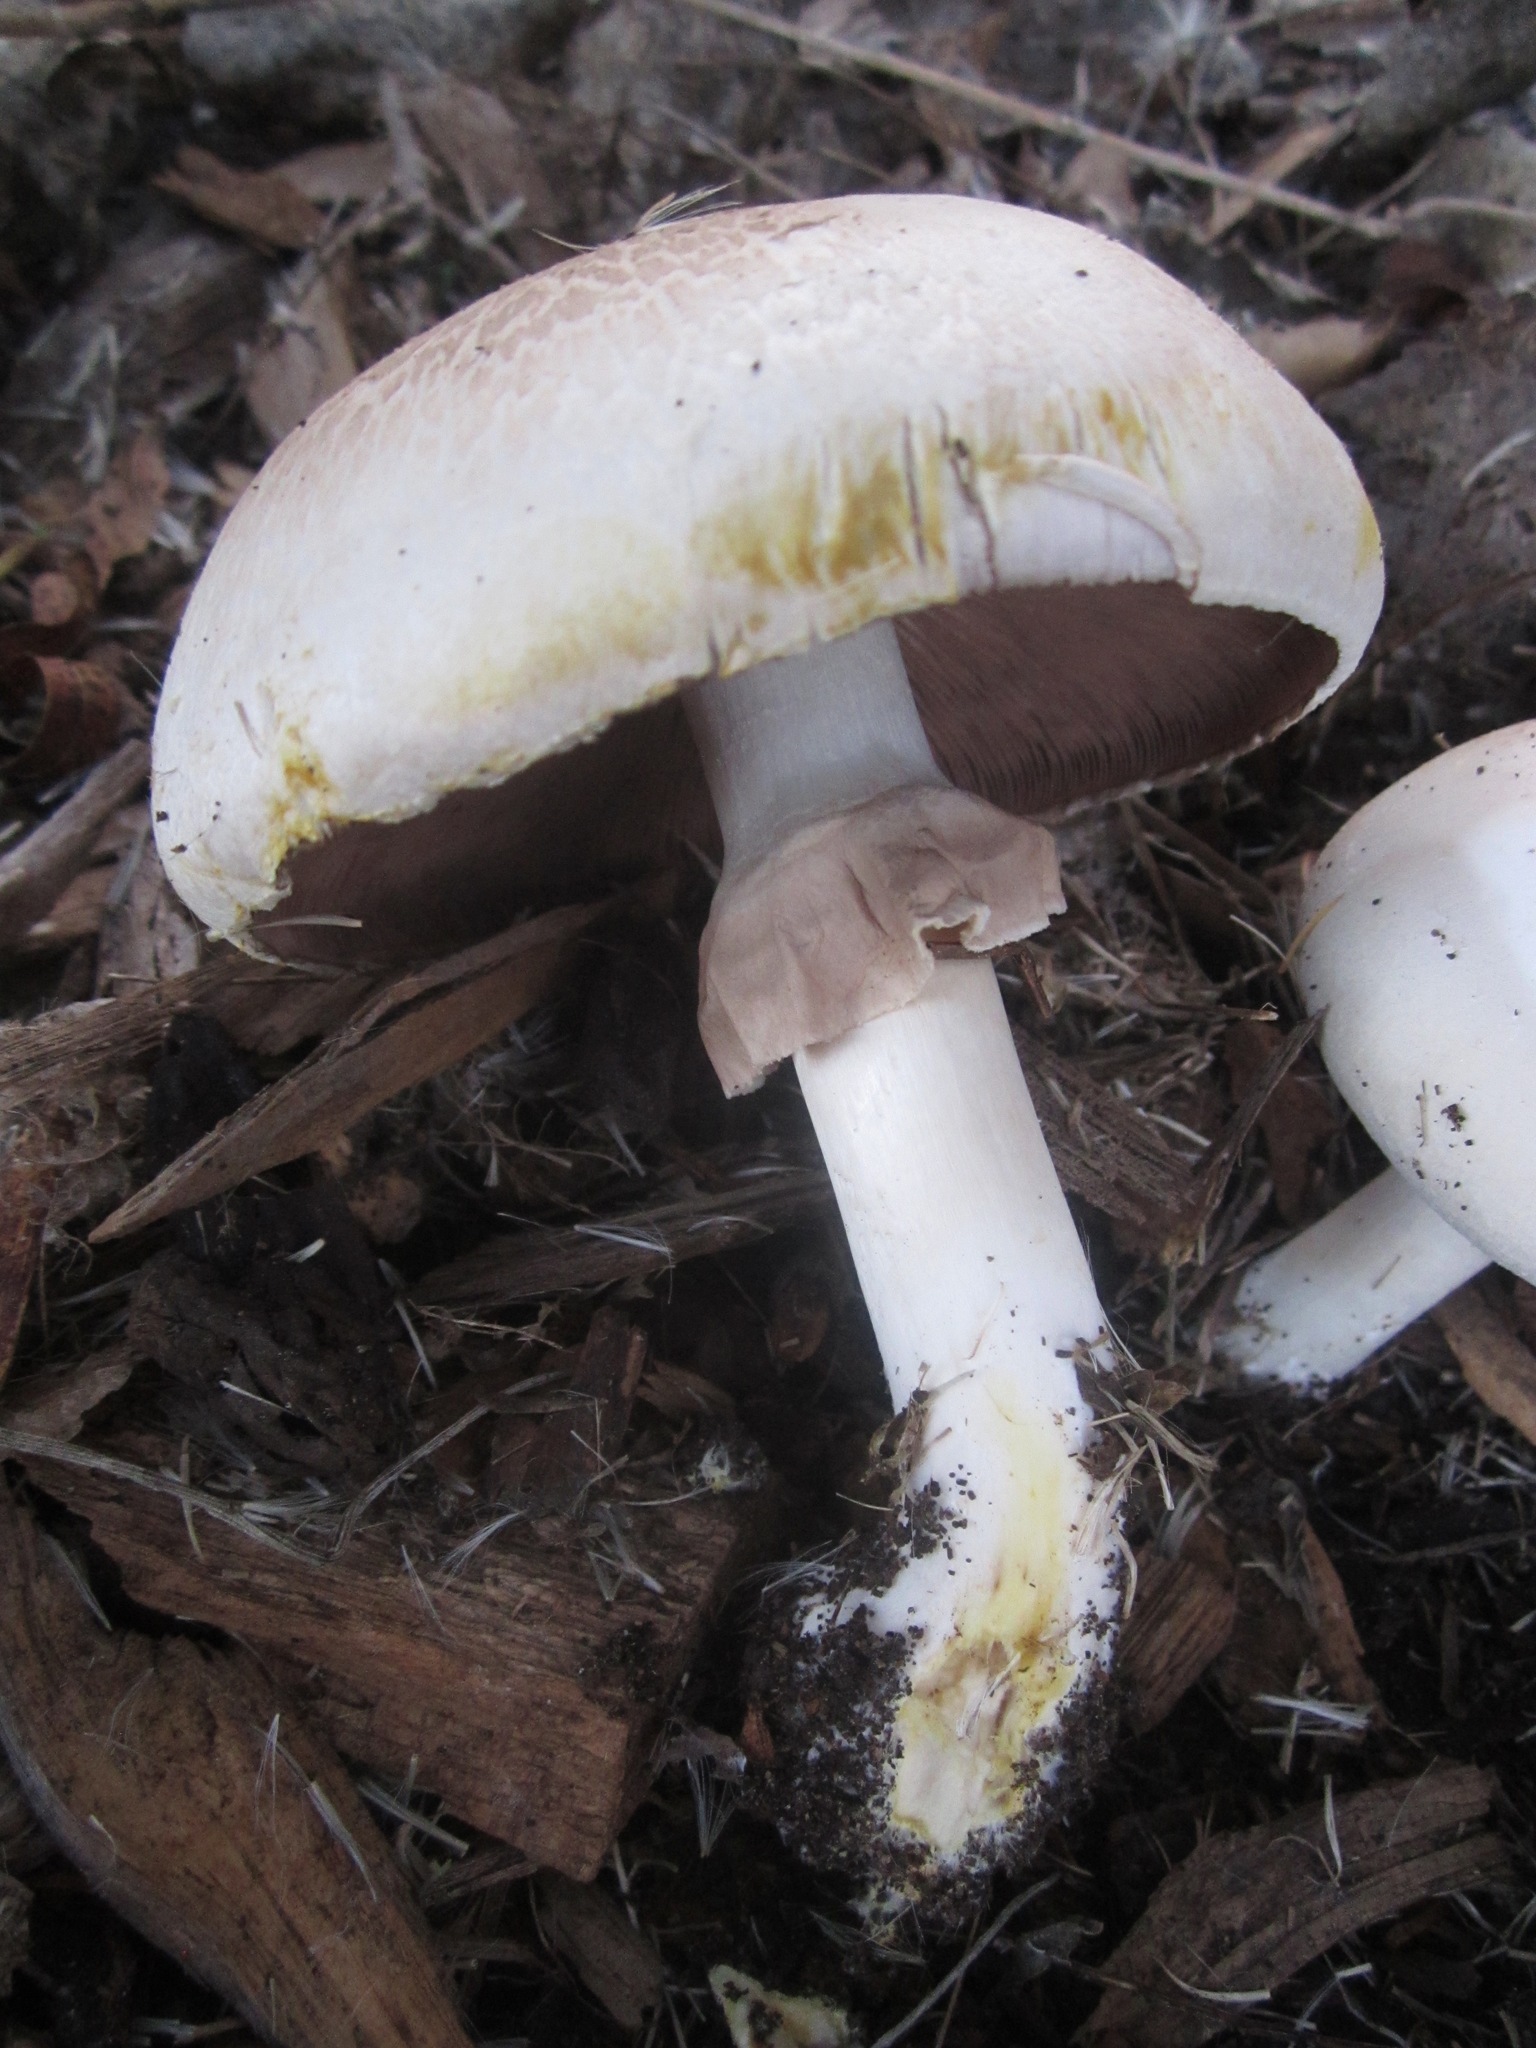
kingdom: Fungi
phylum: Basidiomycota
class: Agaricomycetes
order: Agaricales
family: Agaricaceae
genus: Agaricus
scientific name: Agaricus xanthodermus
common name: Yellow stainer
